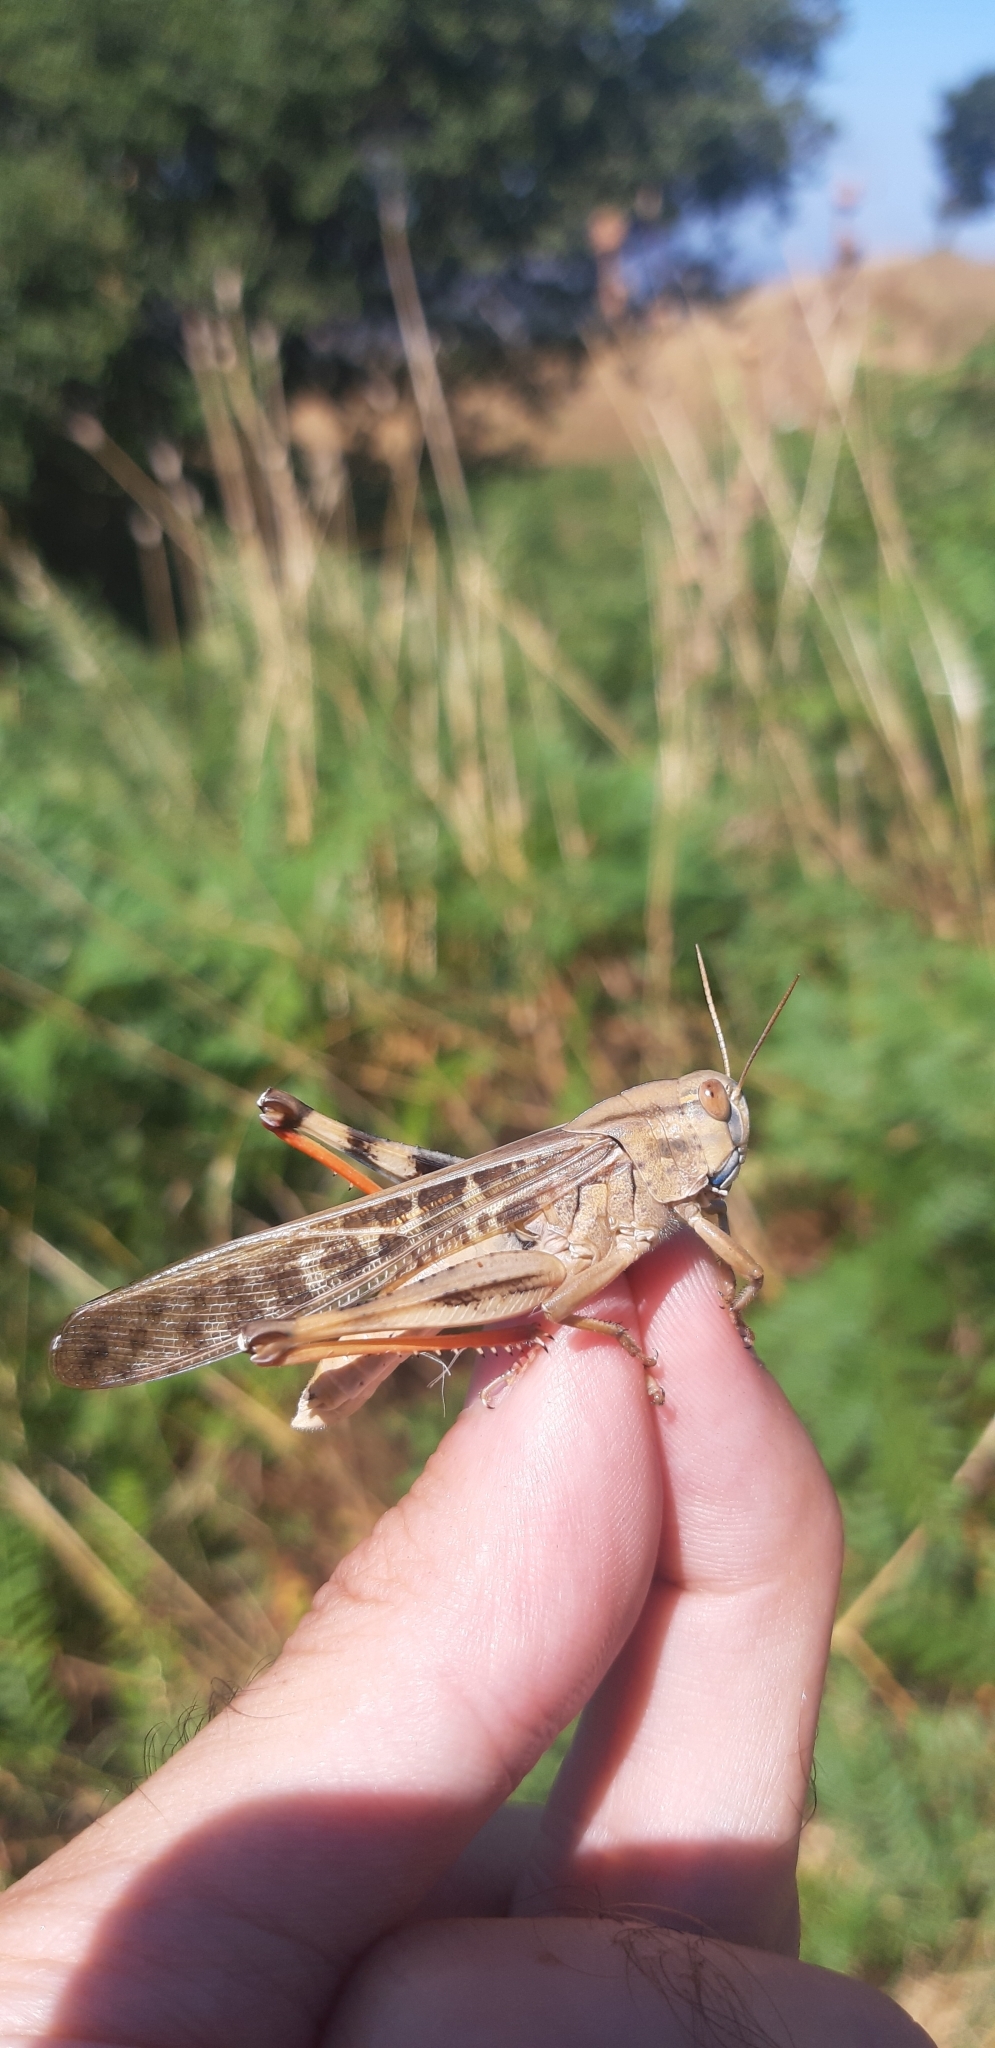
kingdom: Animalia
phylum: Arthropoda
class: Insecta
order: Orthoptera
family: Acrididae
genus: Locusta
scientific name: Locusta migratoria
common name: Migratory locust
